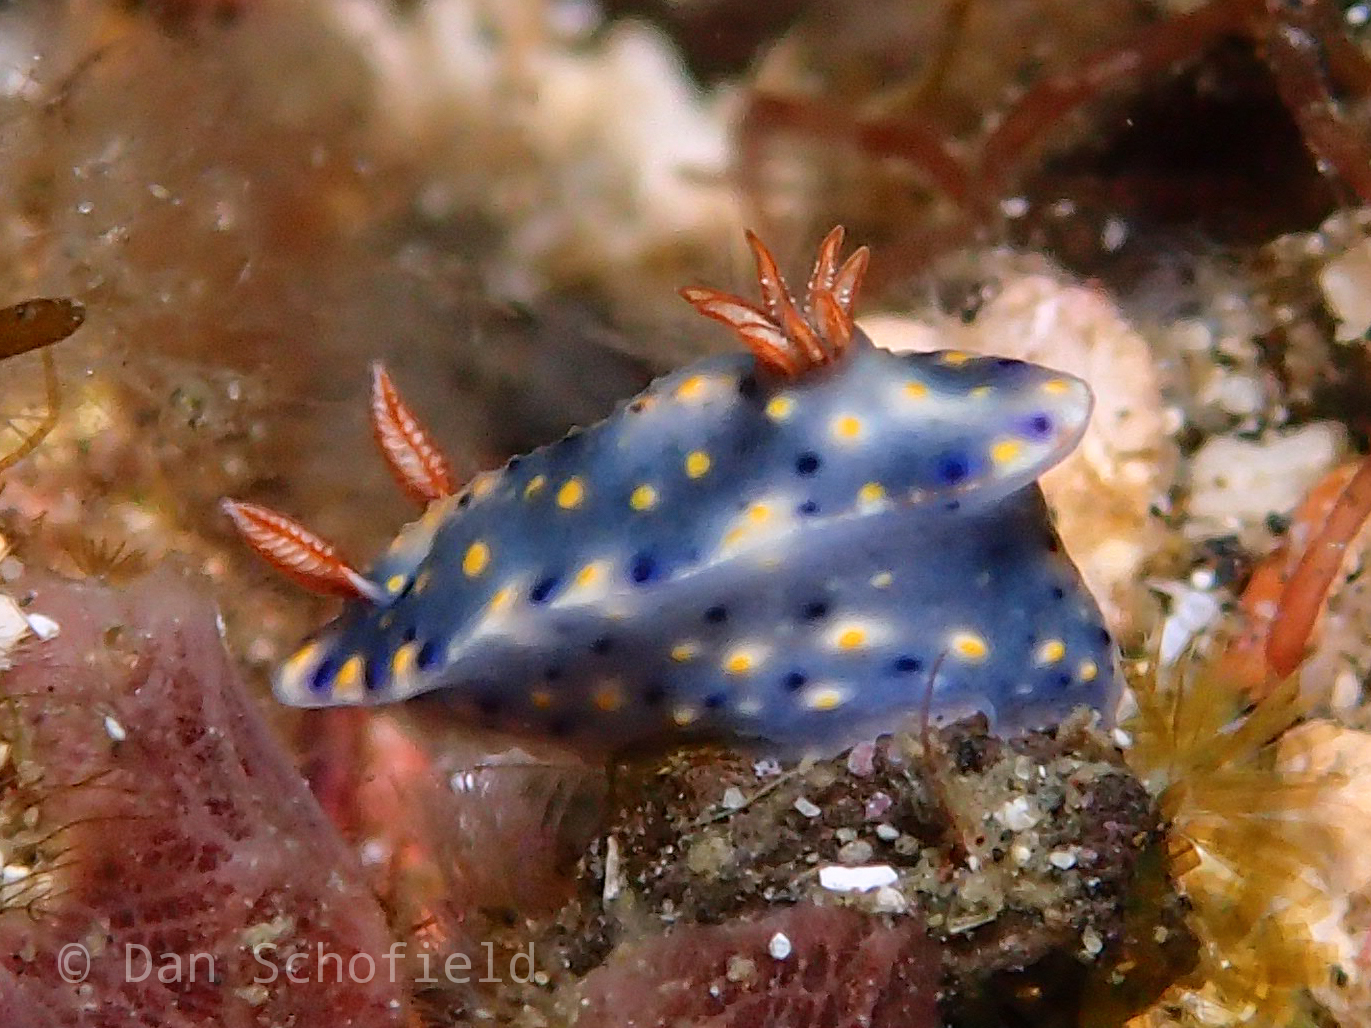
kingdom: Animalia
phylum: Mollusca
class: Gastropoda
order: Nudibranchia
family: Chromodorididae
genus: Hypselodoris
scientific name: Hypselodoris roo
